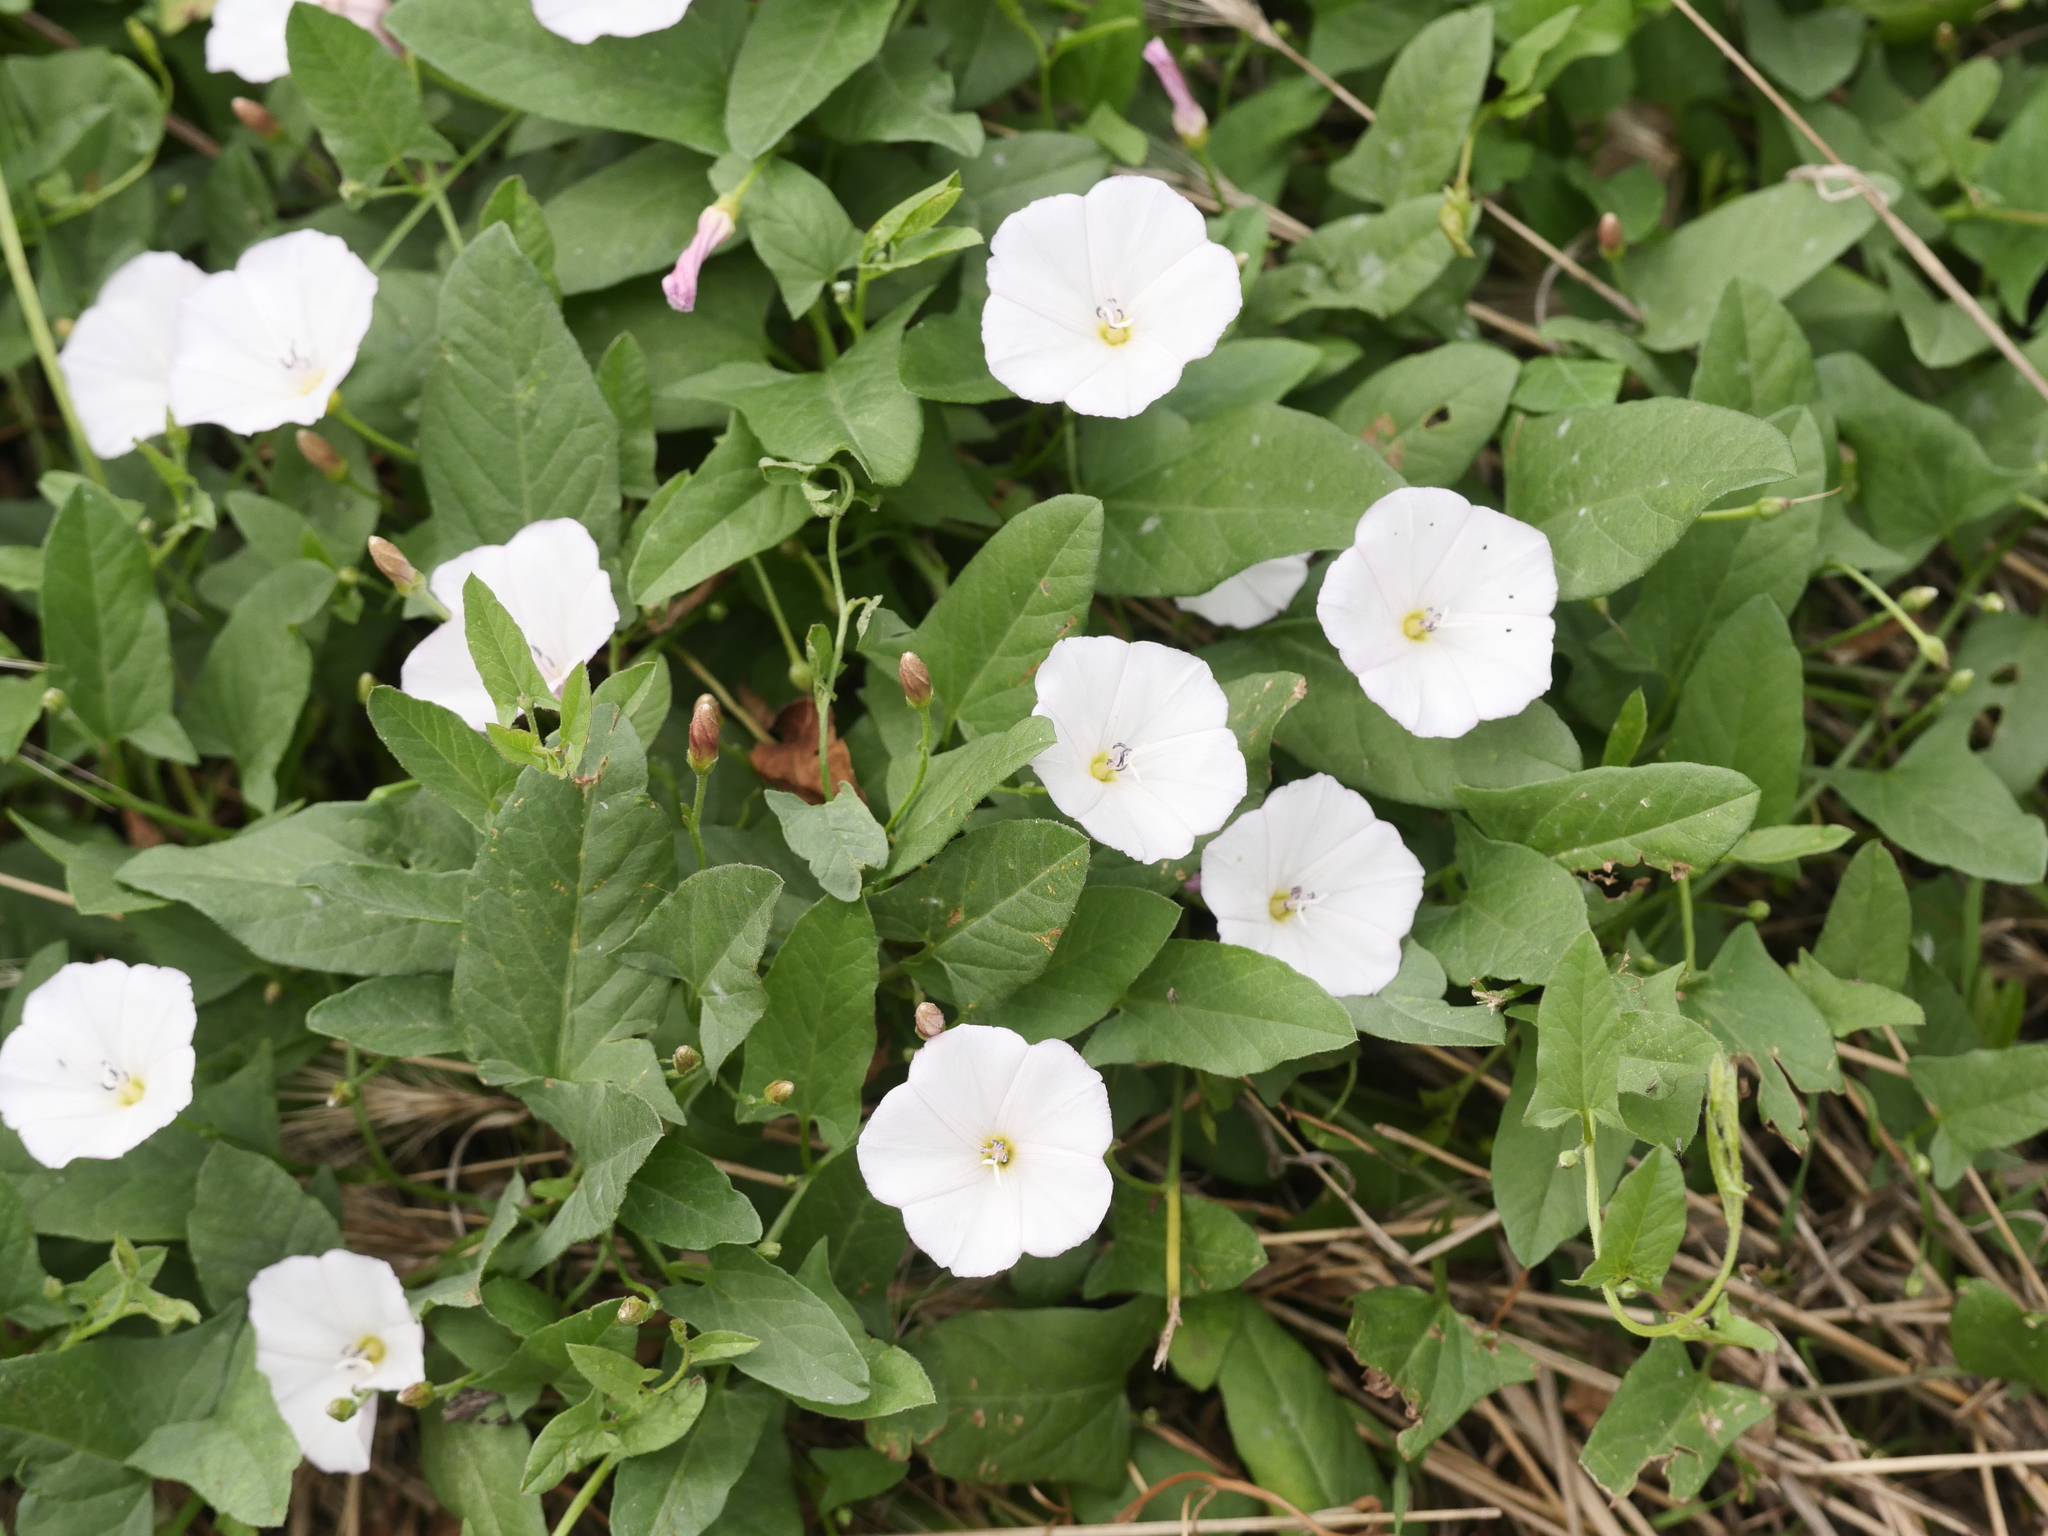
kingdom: Plantae
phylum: Tracheophyta
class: Magnoliopsida
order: Solanales
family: Convolvulaceae
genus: Convolvulus
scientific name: Convolvulus arvensis
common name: Field bindweed
